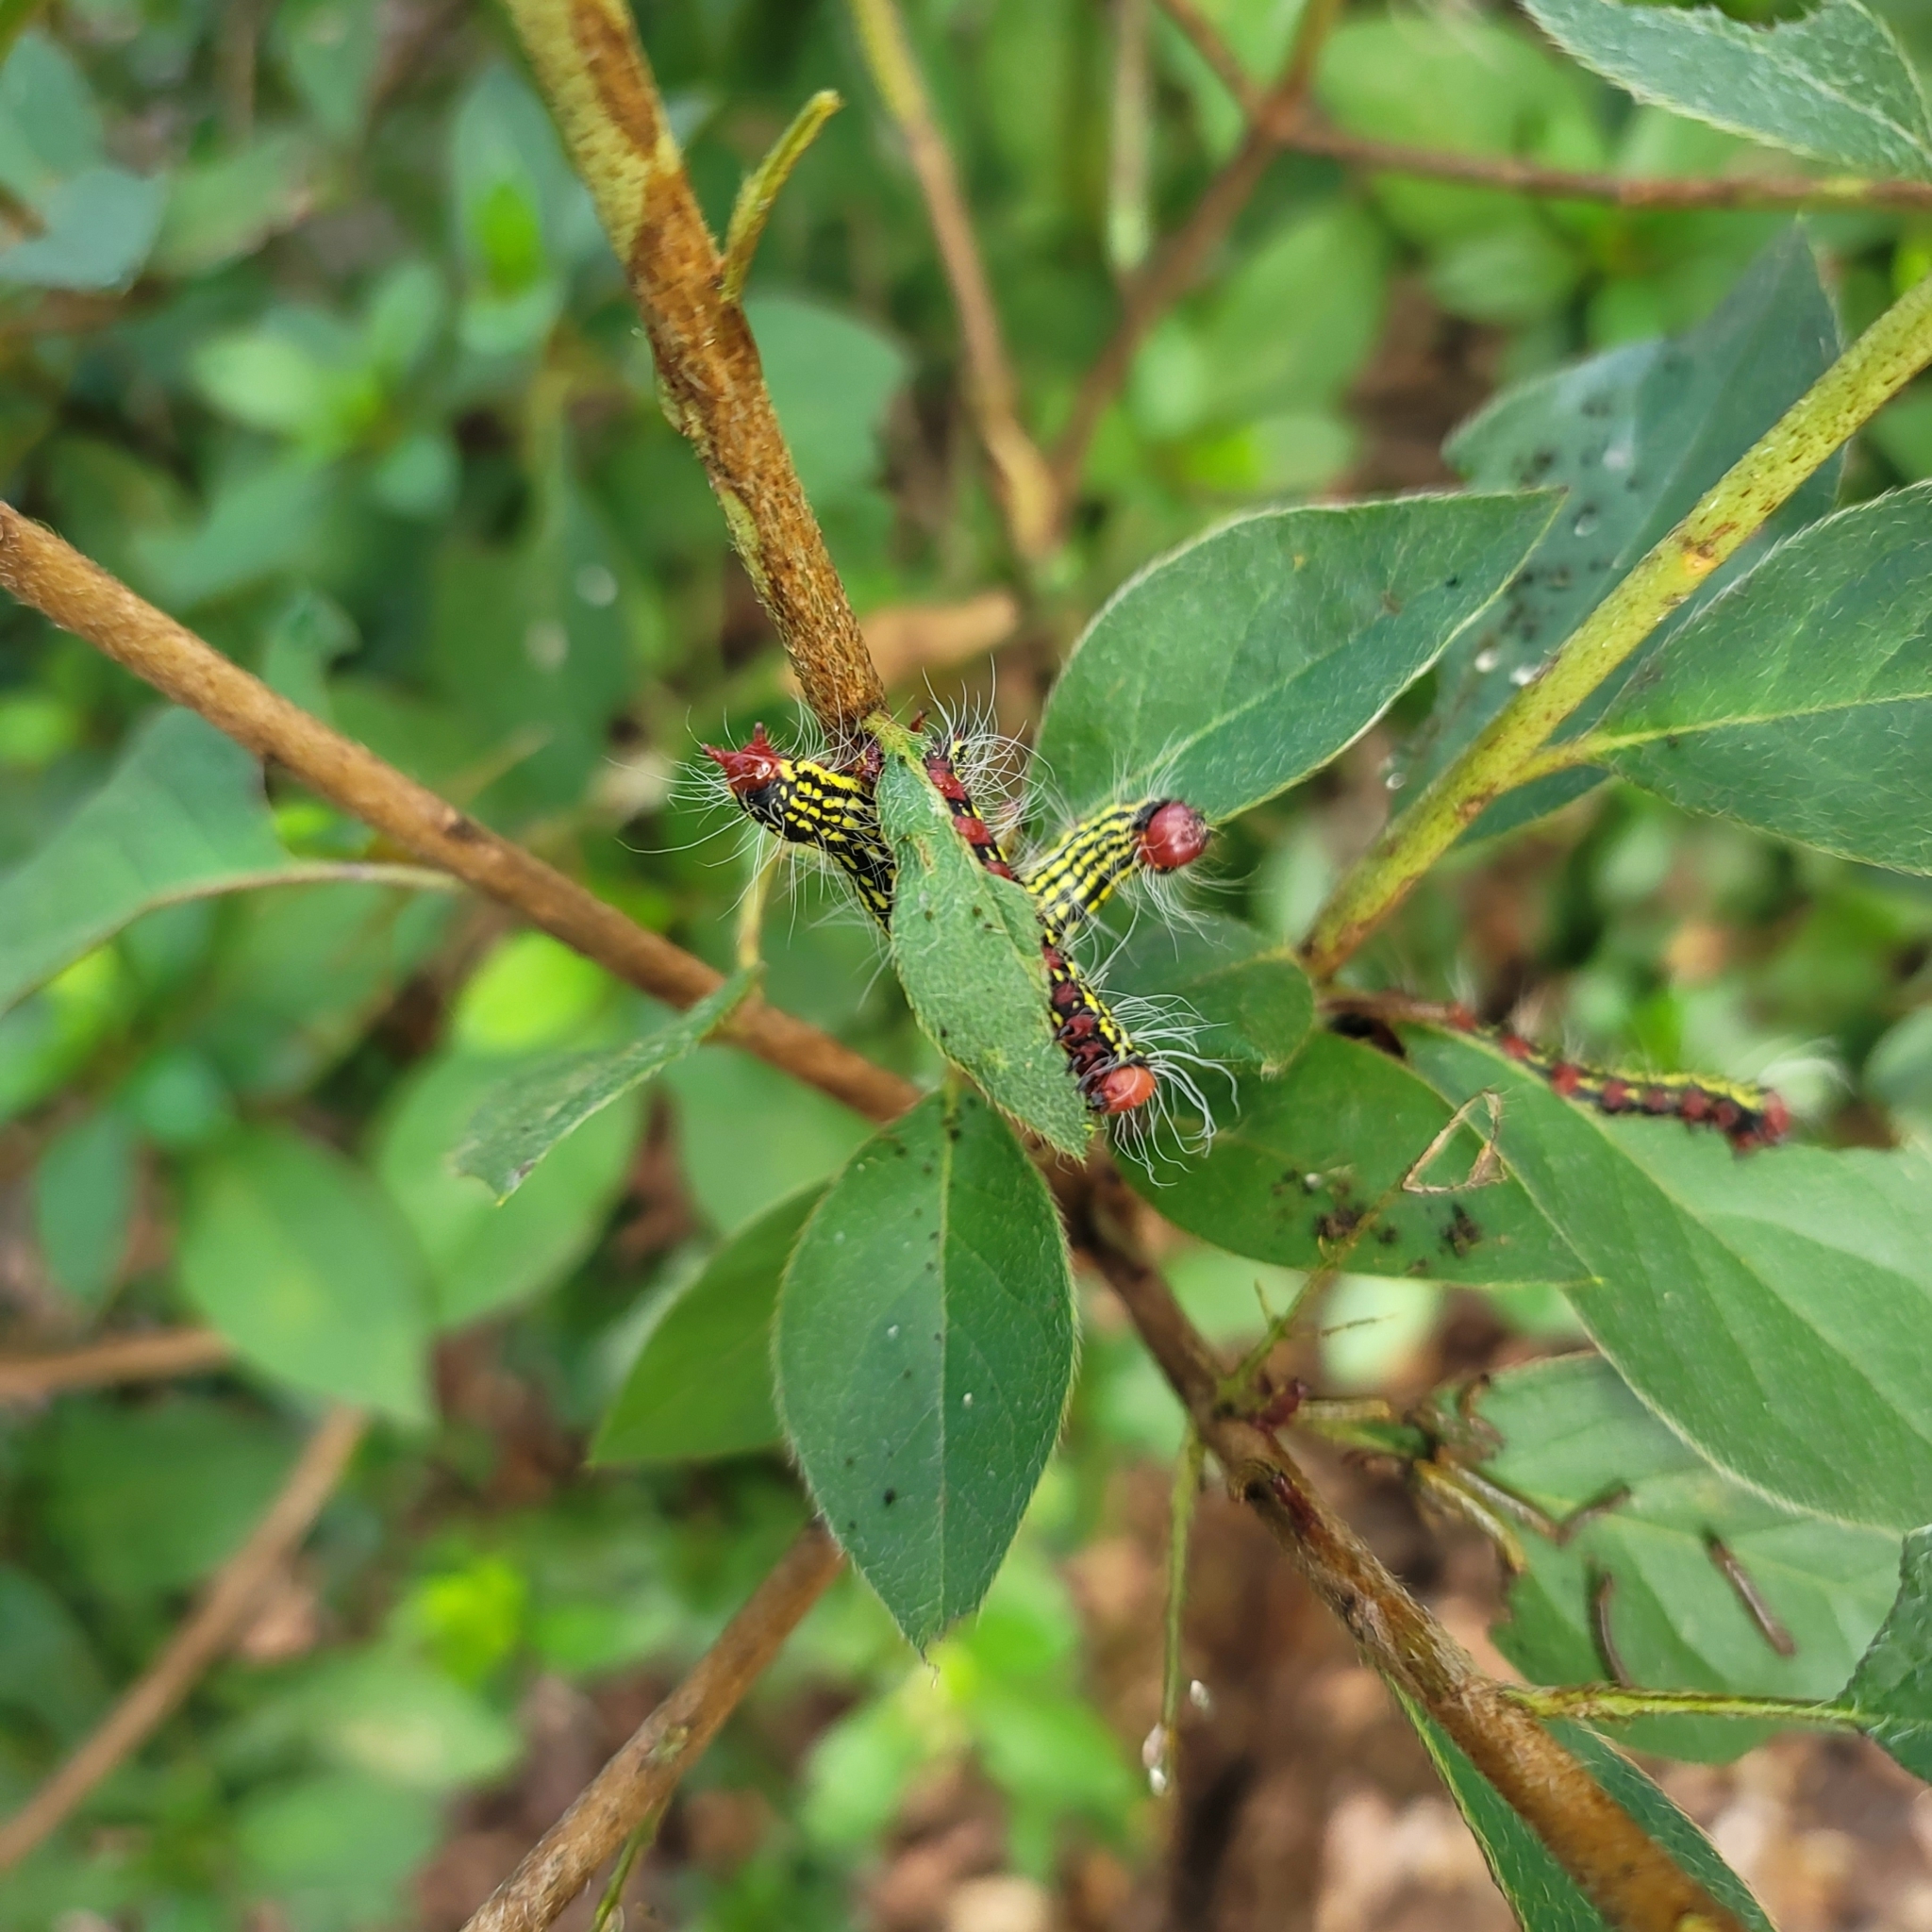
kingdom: Animalia
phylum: Arthropoda
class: Insecta
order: Lepidoptera
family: Notodontidae
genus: Datana
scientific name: Datana major
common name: Azalea caterpillar
